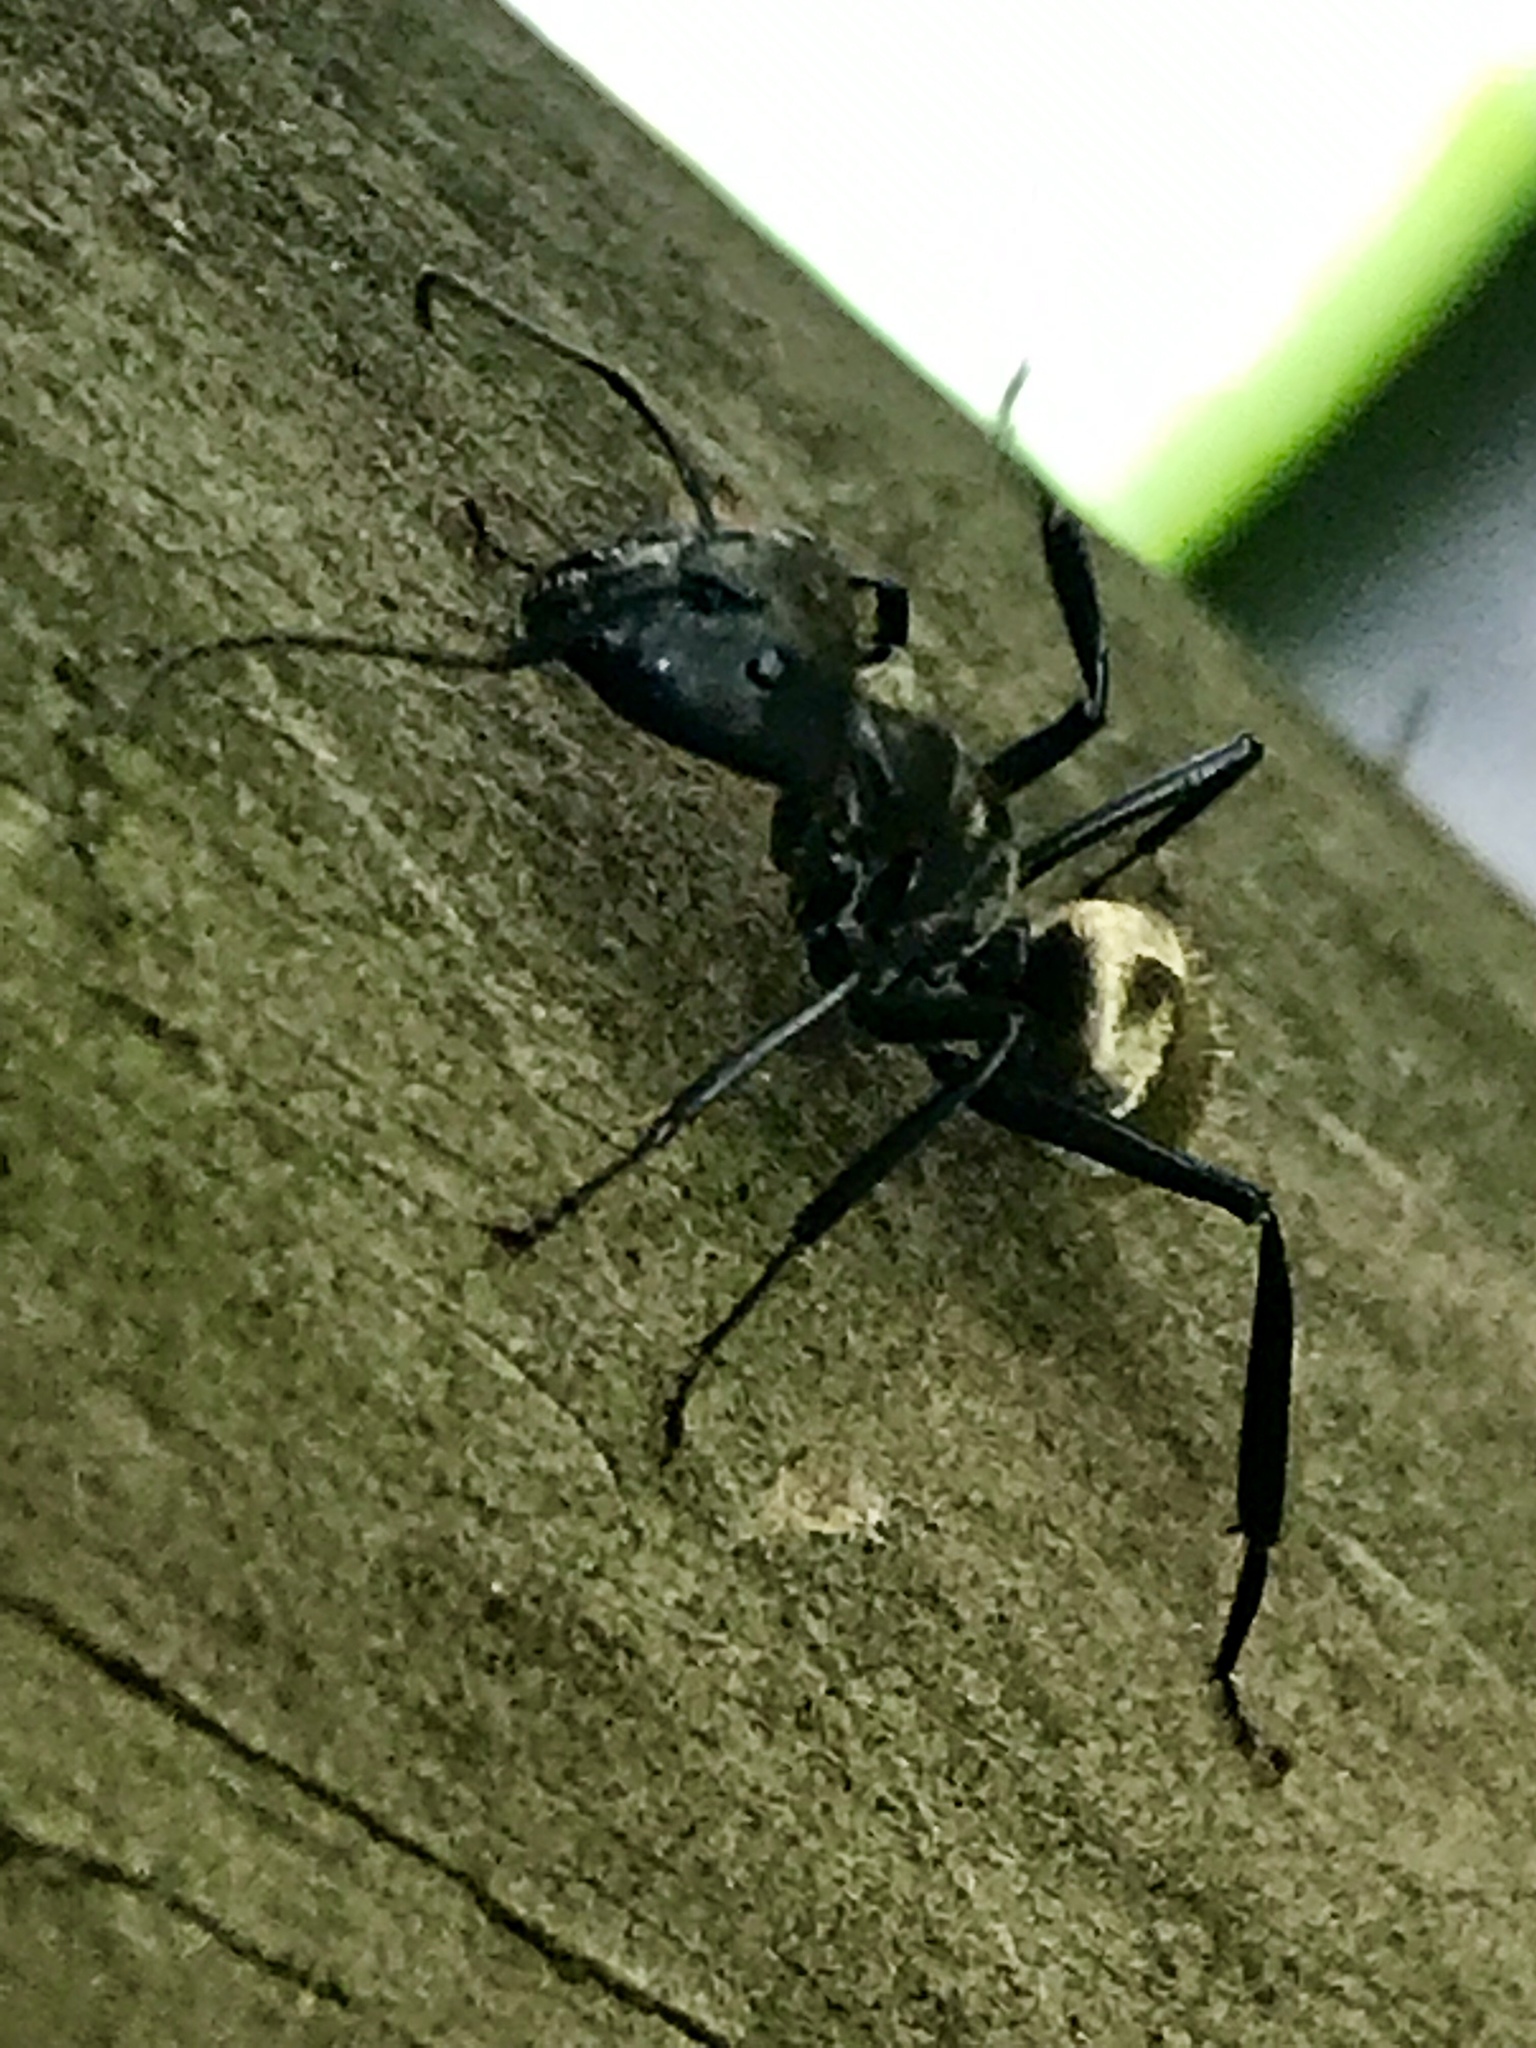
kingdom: Animalia
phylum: Arthropoda
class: Insecta
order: Hymenoptera
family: Formicidae
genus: Camponotus
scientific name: Camponotus sericeiventris
